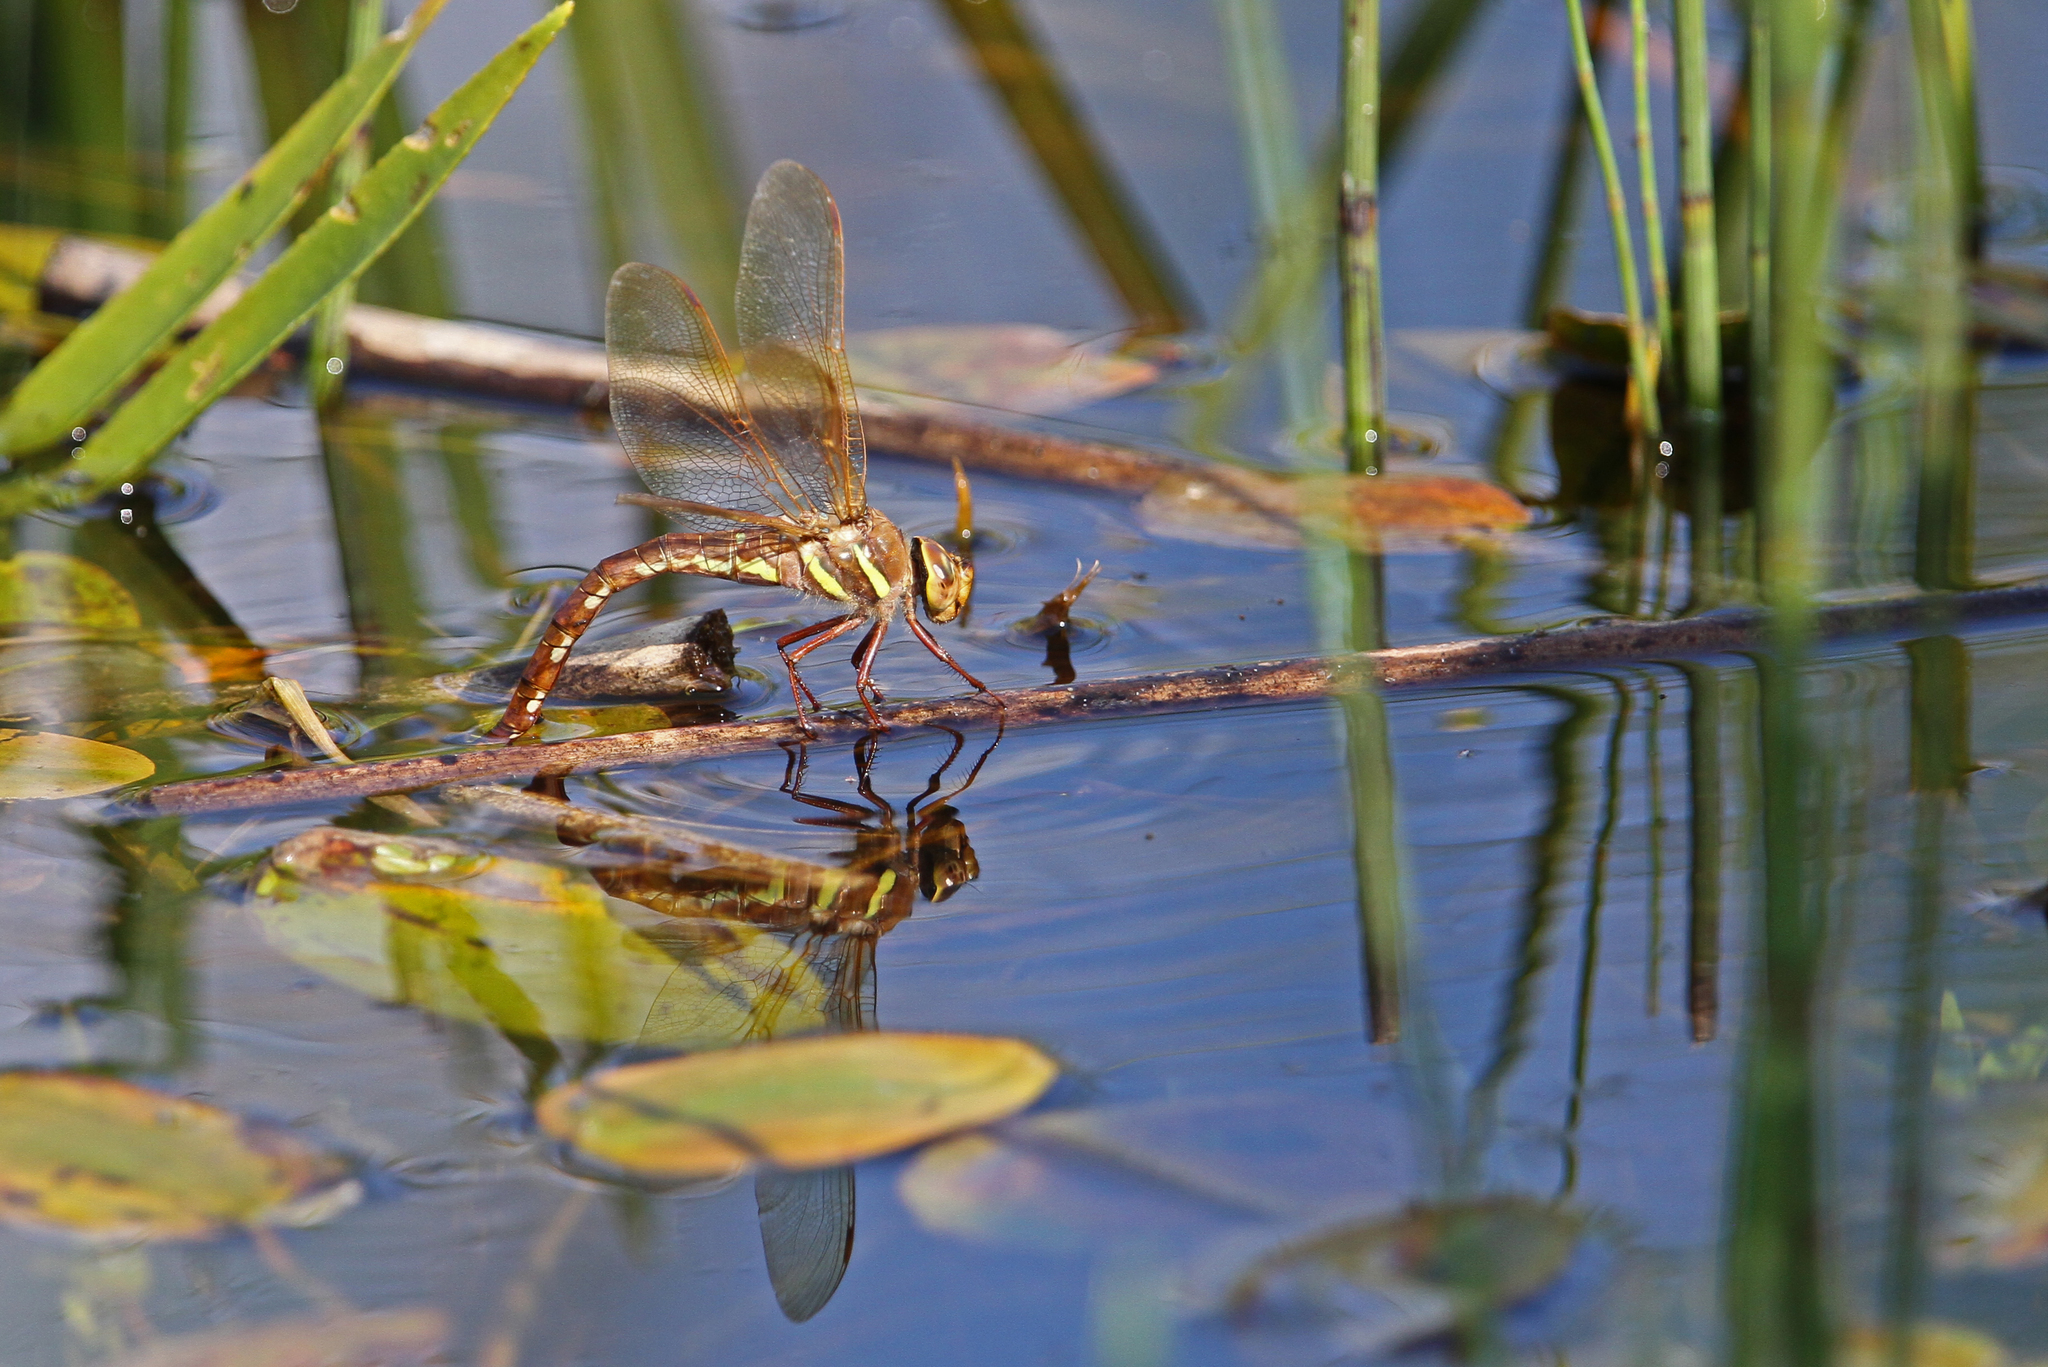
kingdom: Animalia
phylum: Arthropoda
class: Insecta
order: Odonata
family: Aeshnidae
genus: Aeshna
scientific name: Aeshna grandis
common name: Brown hawker
